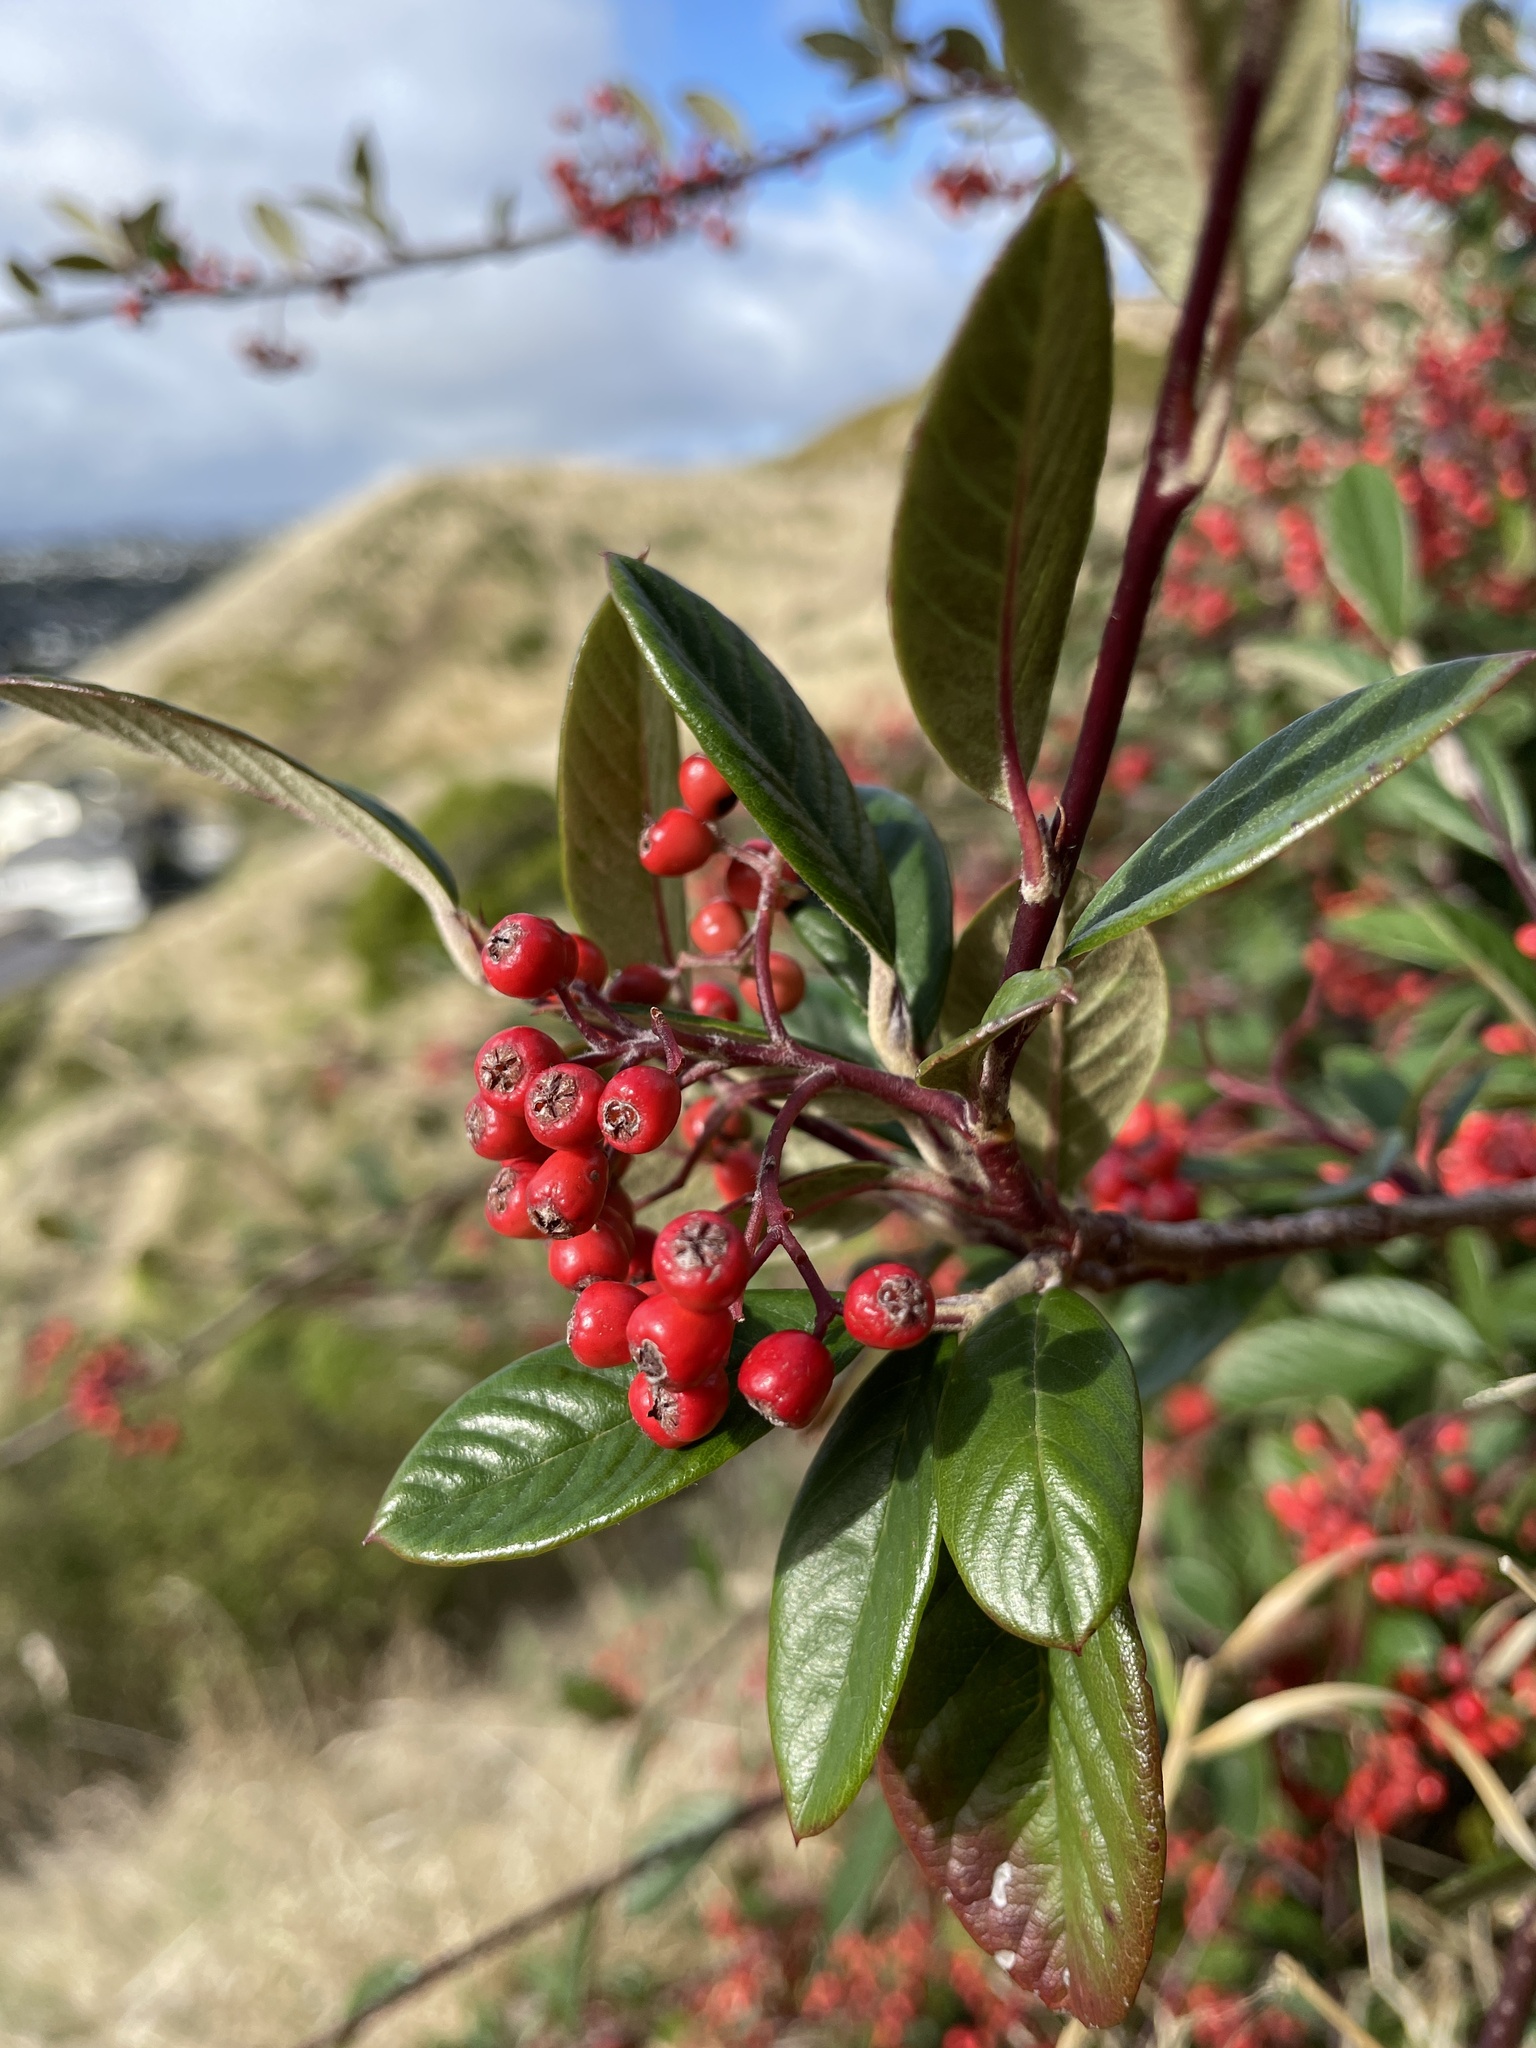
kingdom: Plantae
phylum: Tracheophyta
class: Magnoliopsida
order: Rosales
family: Rosaceae
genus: Cotoneaster
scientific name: Cotoneaster coriaceus
